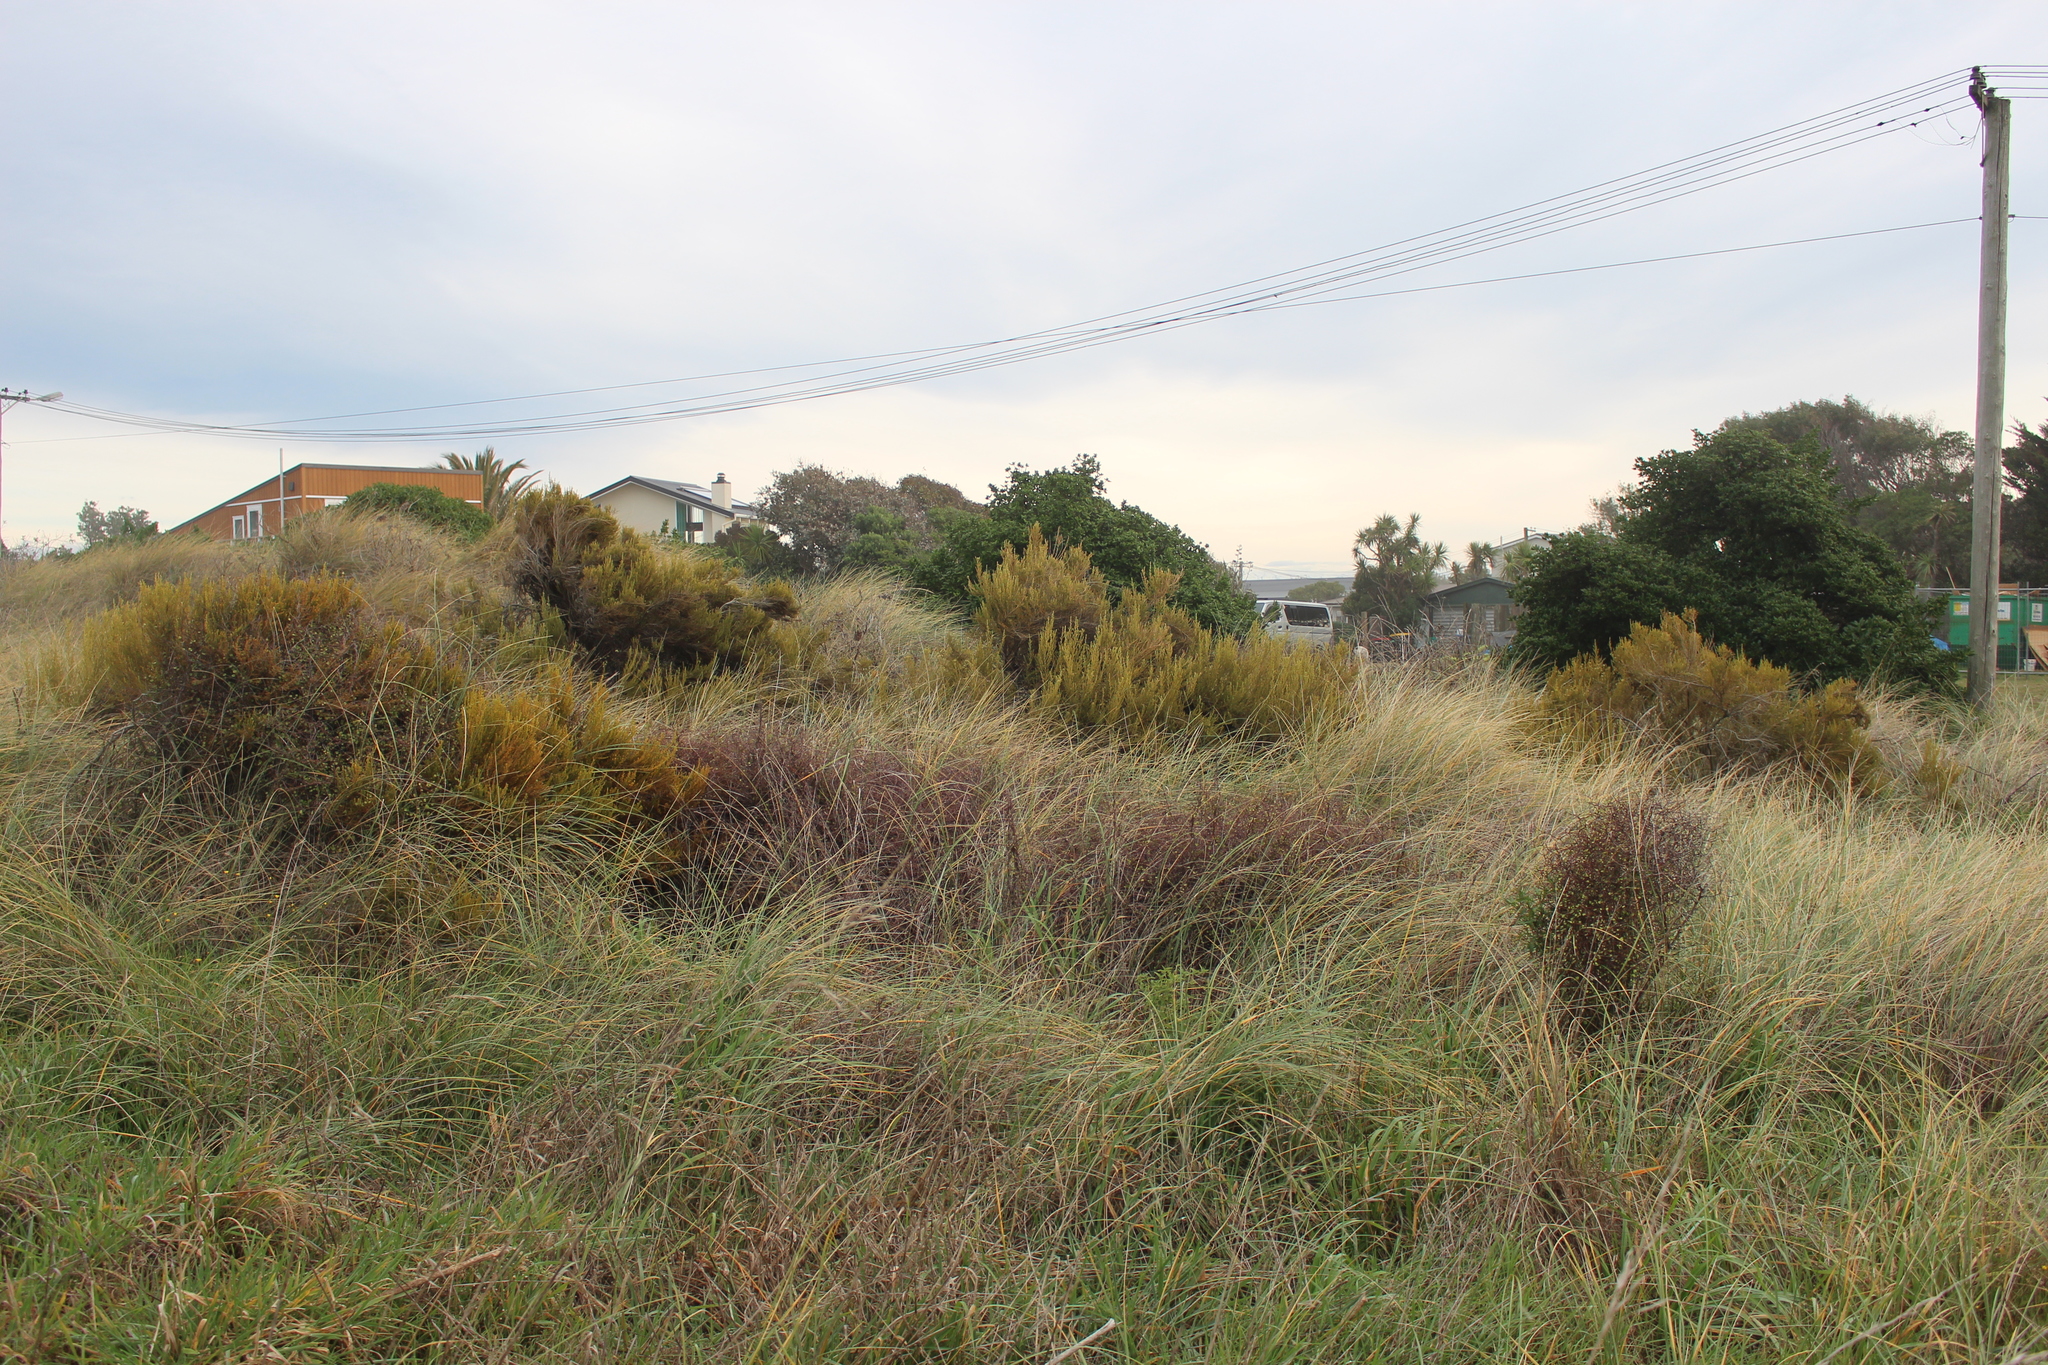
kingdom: Plantae
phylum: Tracheophyta
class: Magnoliopsida
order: Asterales
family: Asteraceae
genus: Ozothamnus
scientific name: Ozothamnus leptophyllus
